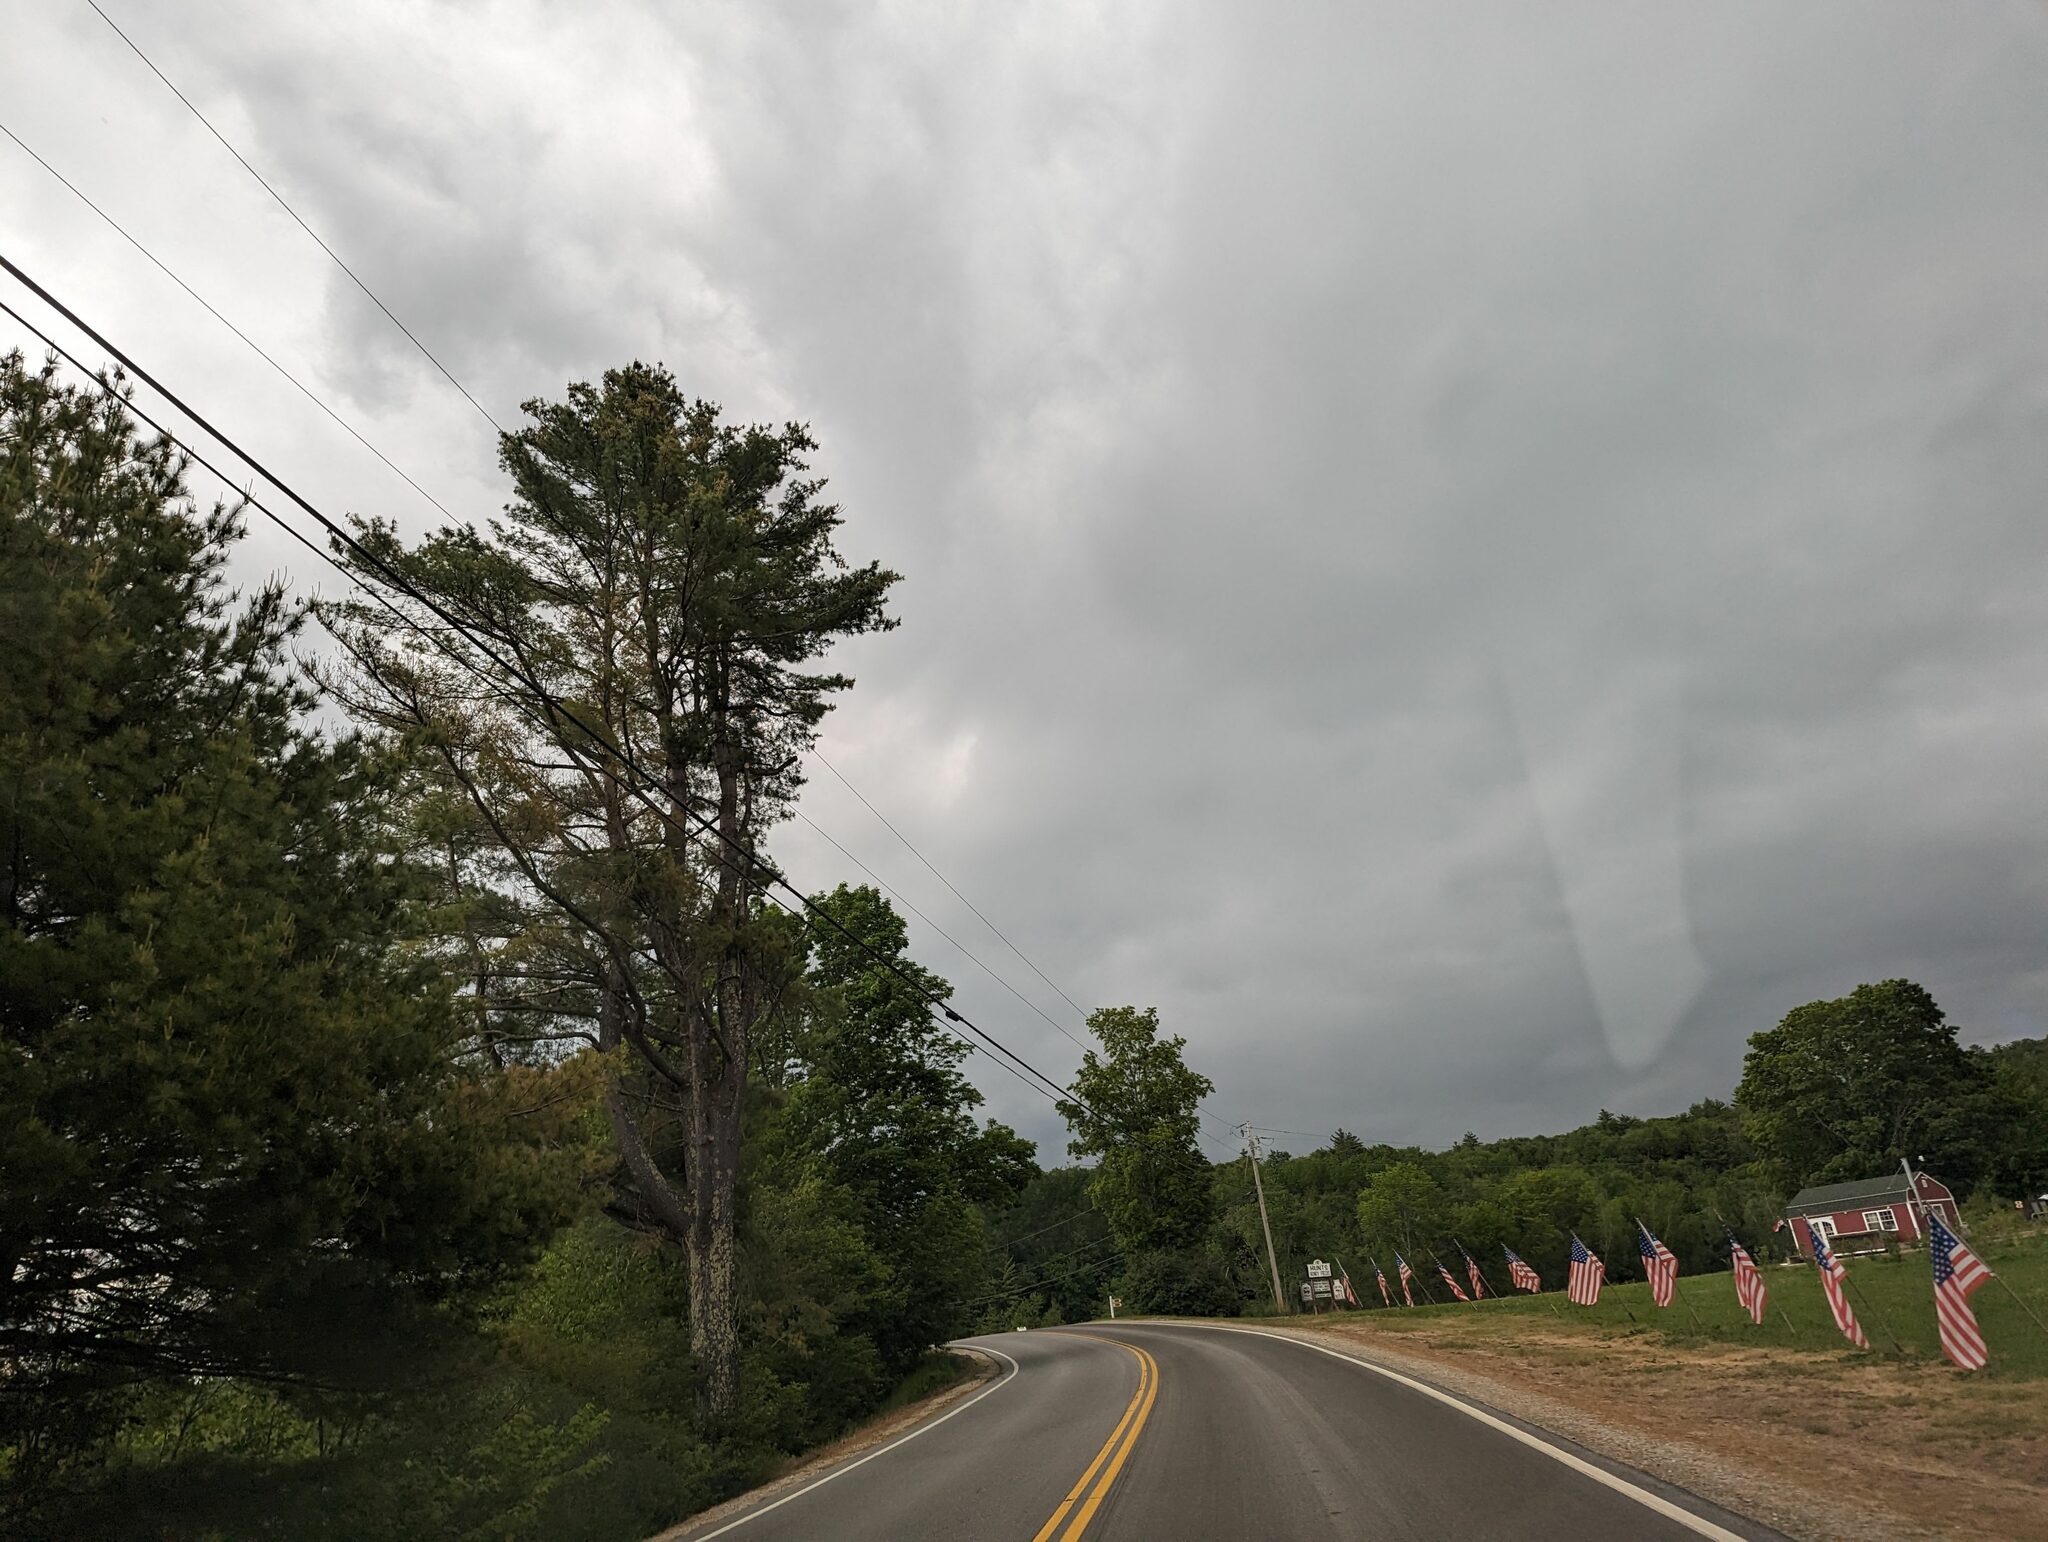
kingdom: Plantae
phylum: Tracheophyta
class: Pinopsida
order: Pinales
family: Pinaceae
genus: Pinus
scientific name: Pinus strobus
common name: Weymouth pine
